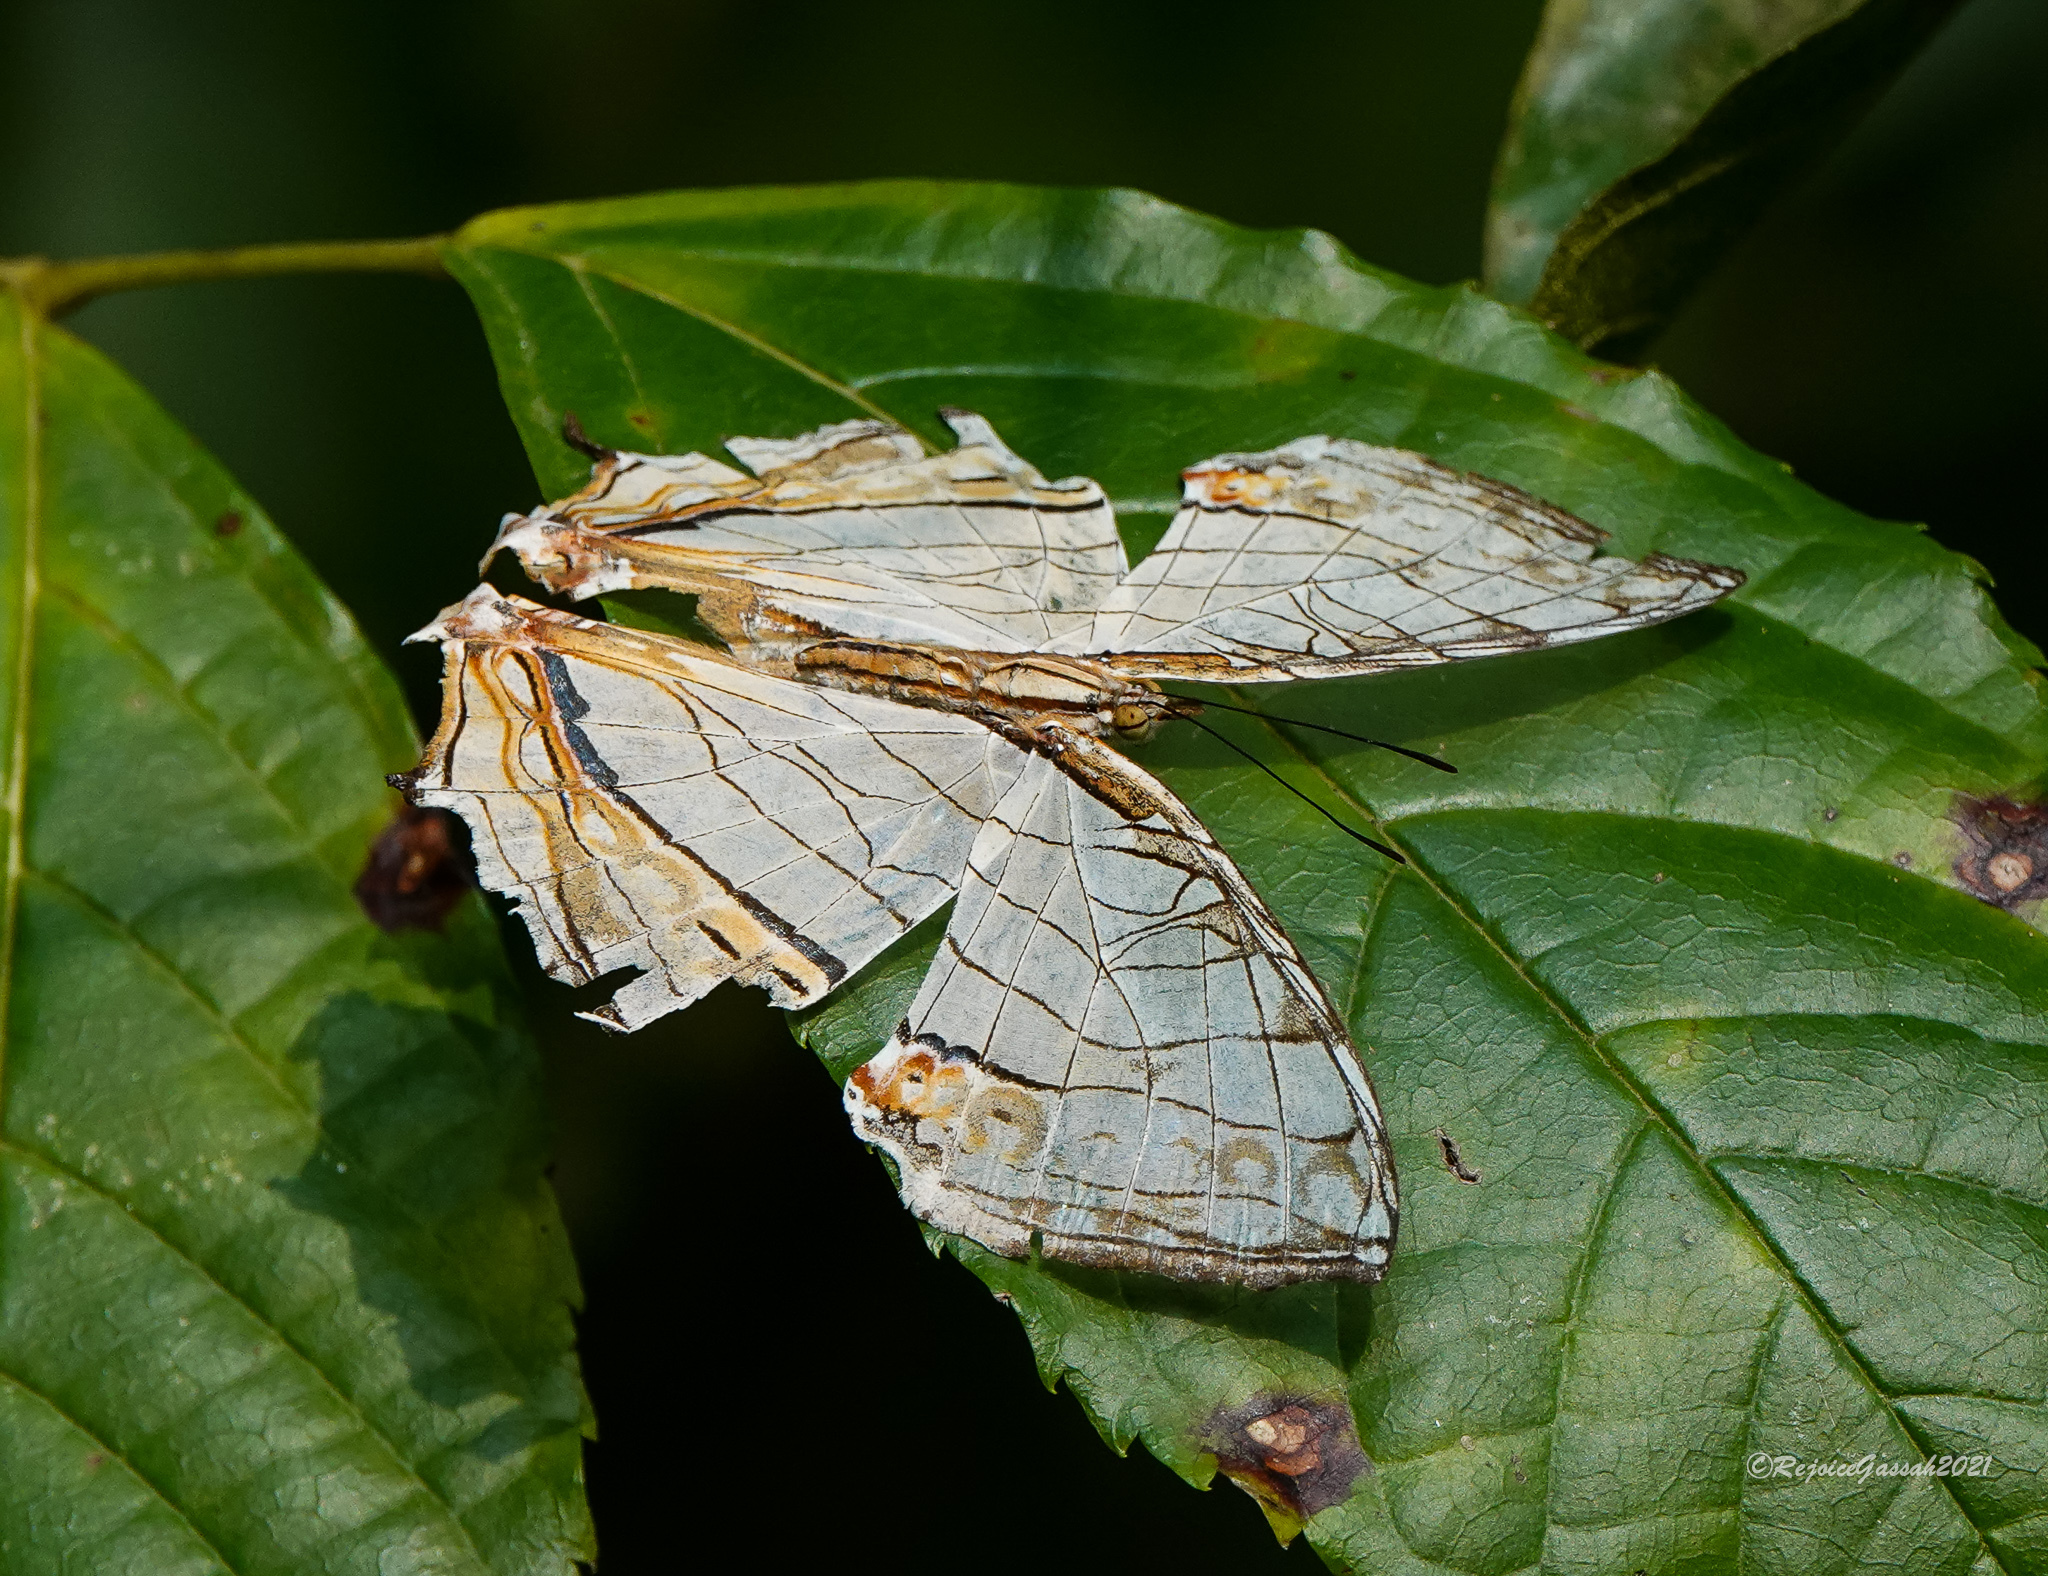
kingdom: Animalia
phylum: Arthropoda
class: Insecta
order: Lepidoptera
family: Nymphalidae
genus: Cyrestis
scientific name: Cyrestis thyodamas
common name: Common mapwing
